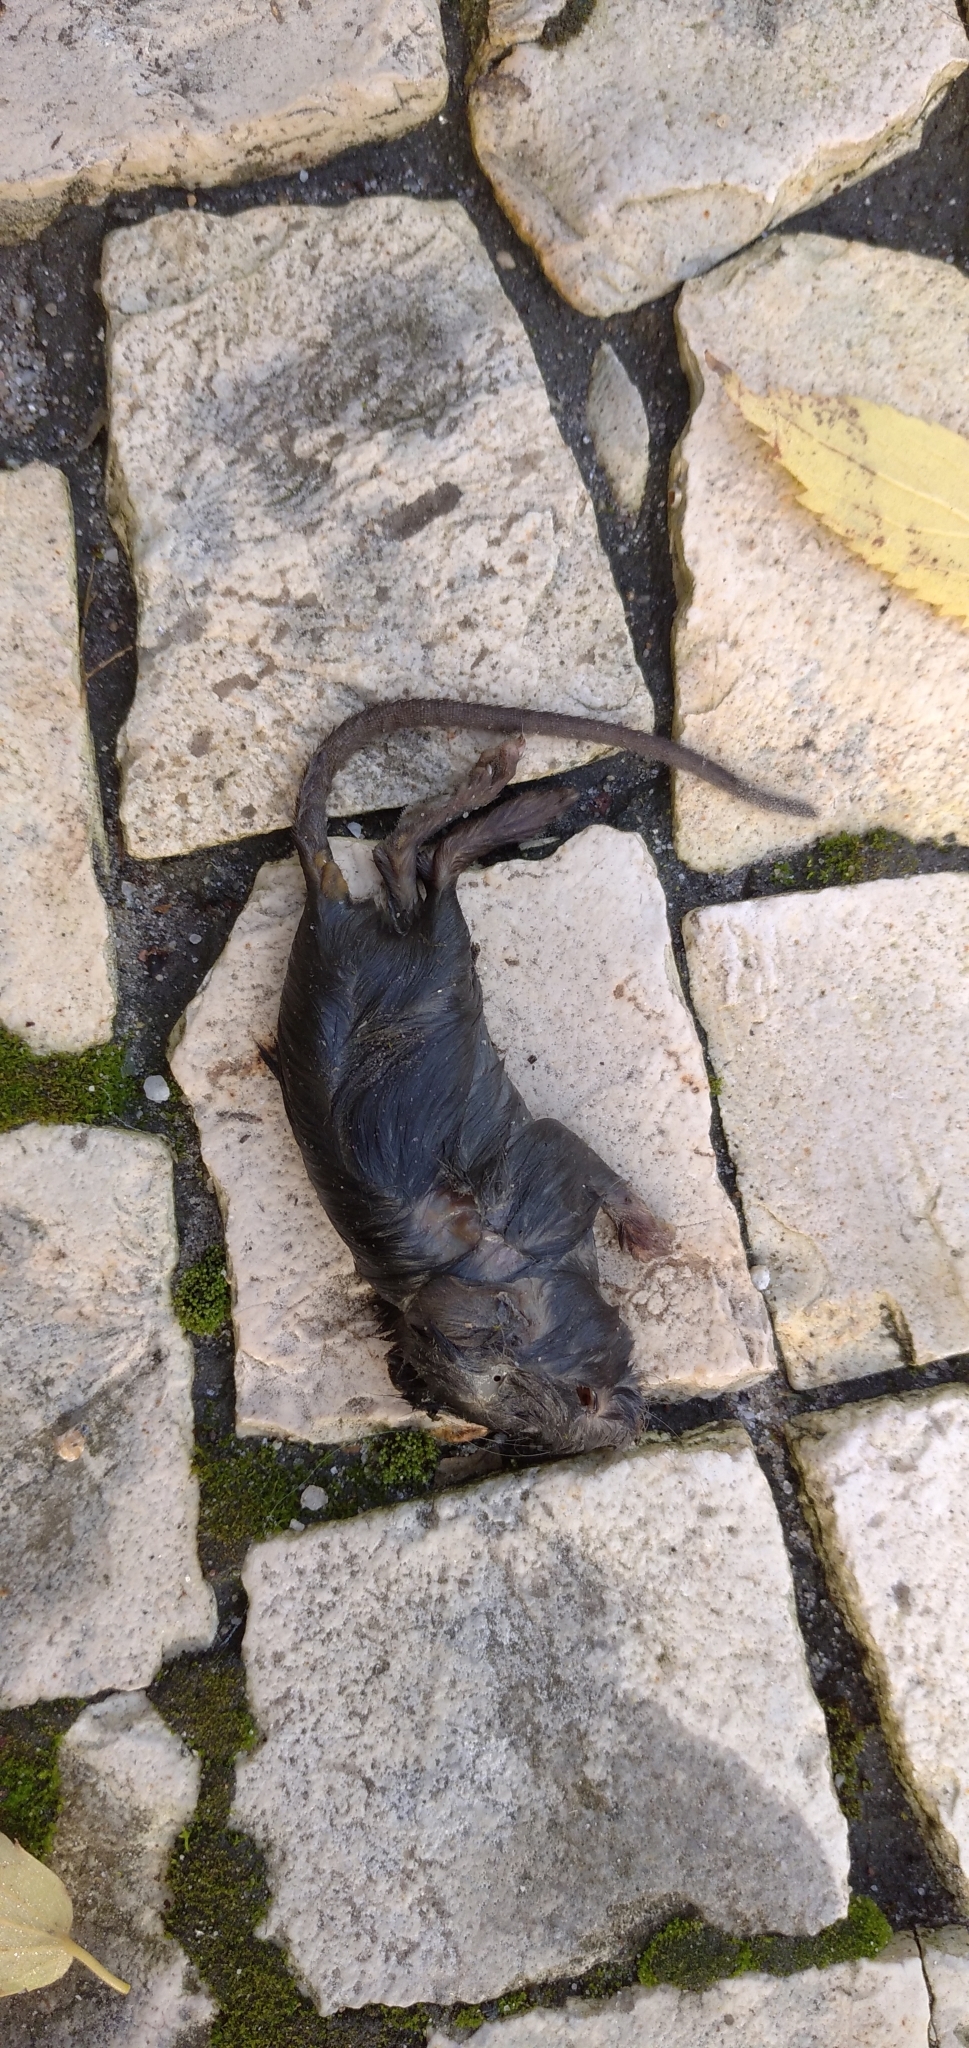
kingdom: Animalia
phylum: Chordata
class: Mammalia
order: Rodentia
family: Muridae
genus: Rattus
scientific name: Rattus rattus
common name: Black rat
